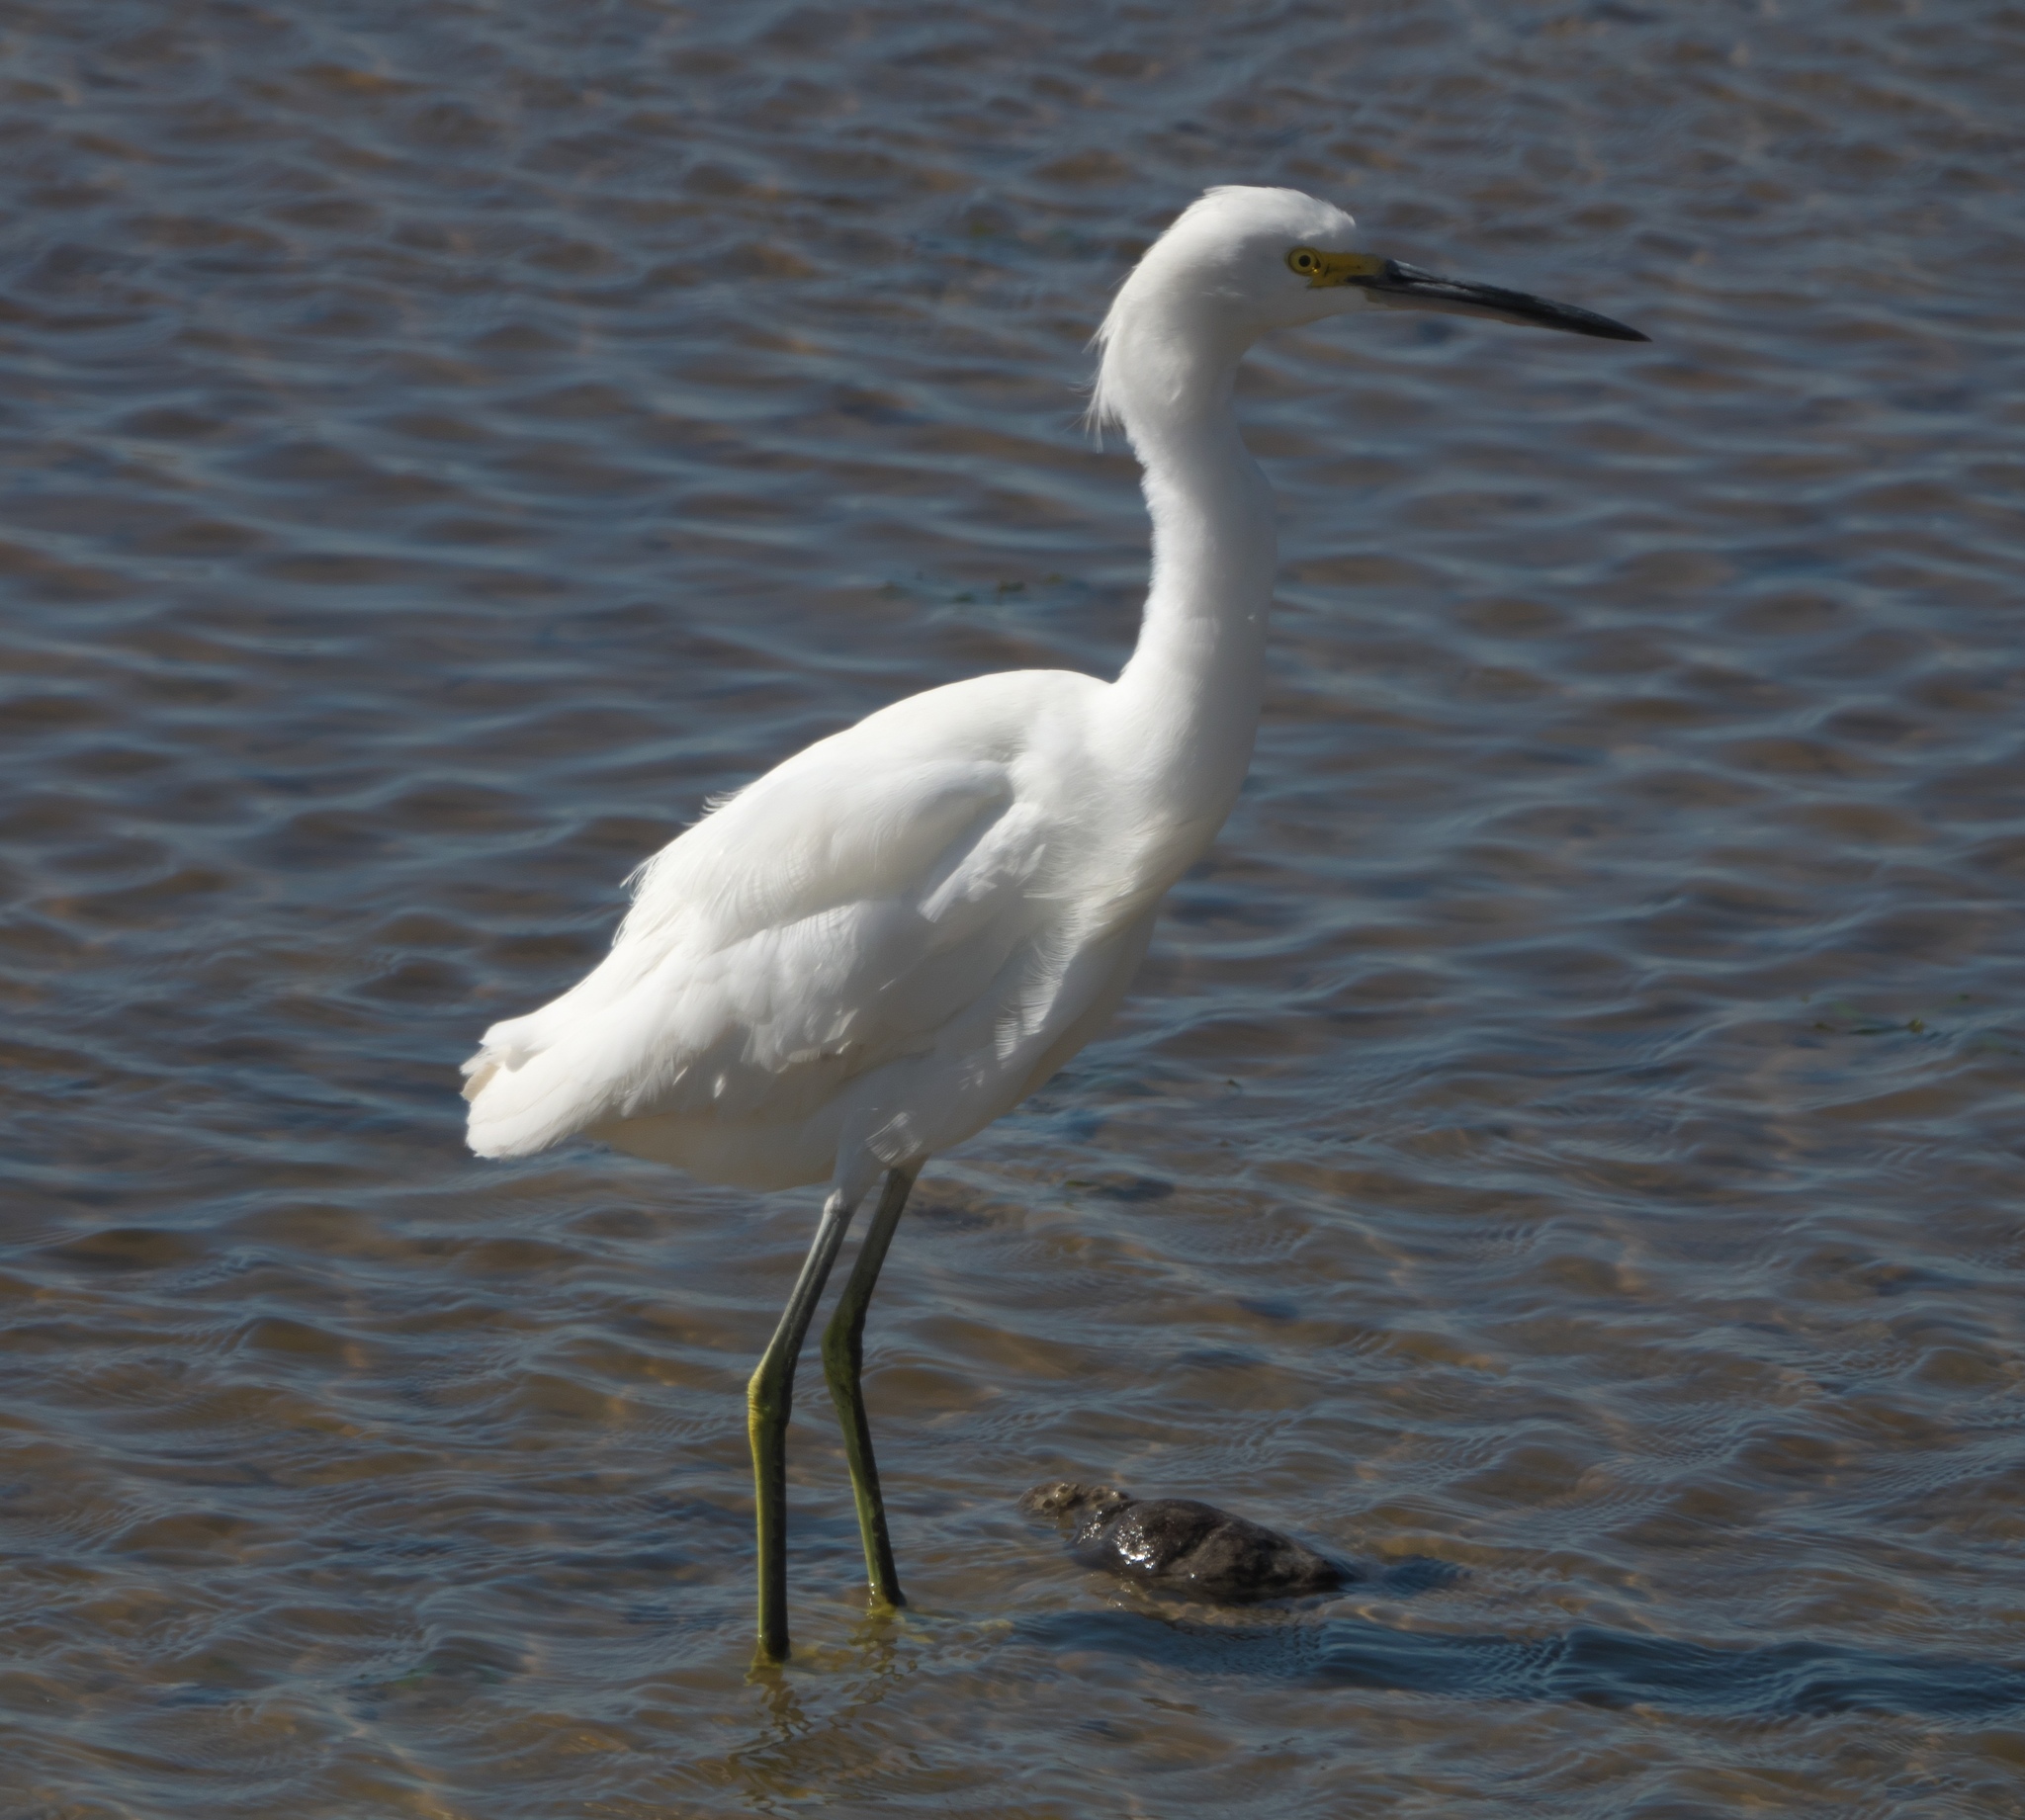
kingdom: Animalia
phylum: Chordata
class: Aves
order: Pelecaniformes
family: Ardeidae
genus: Egretta
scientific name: Egretta thula
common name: Snowy egret
